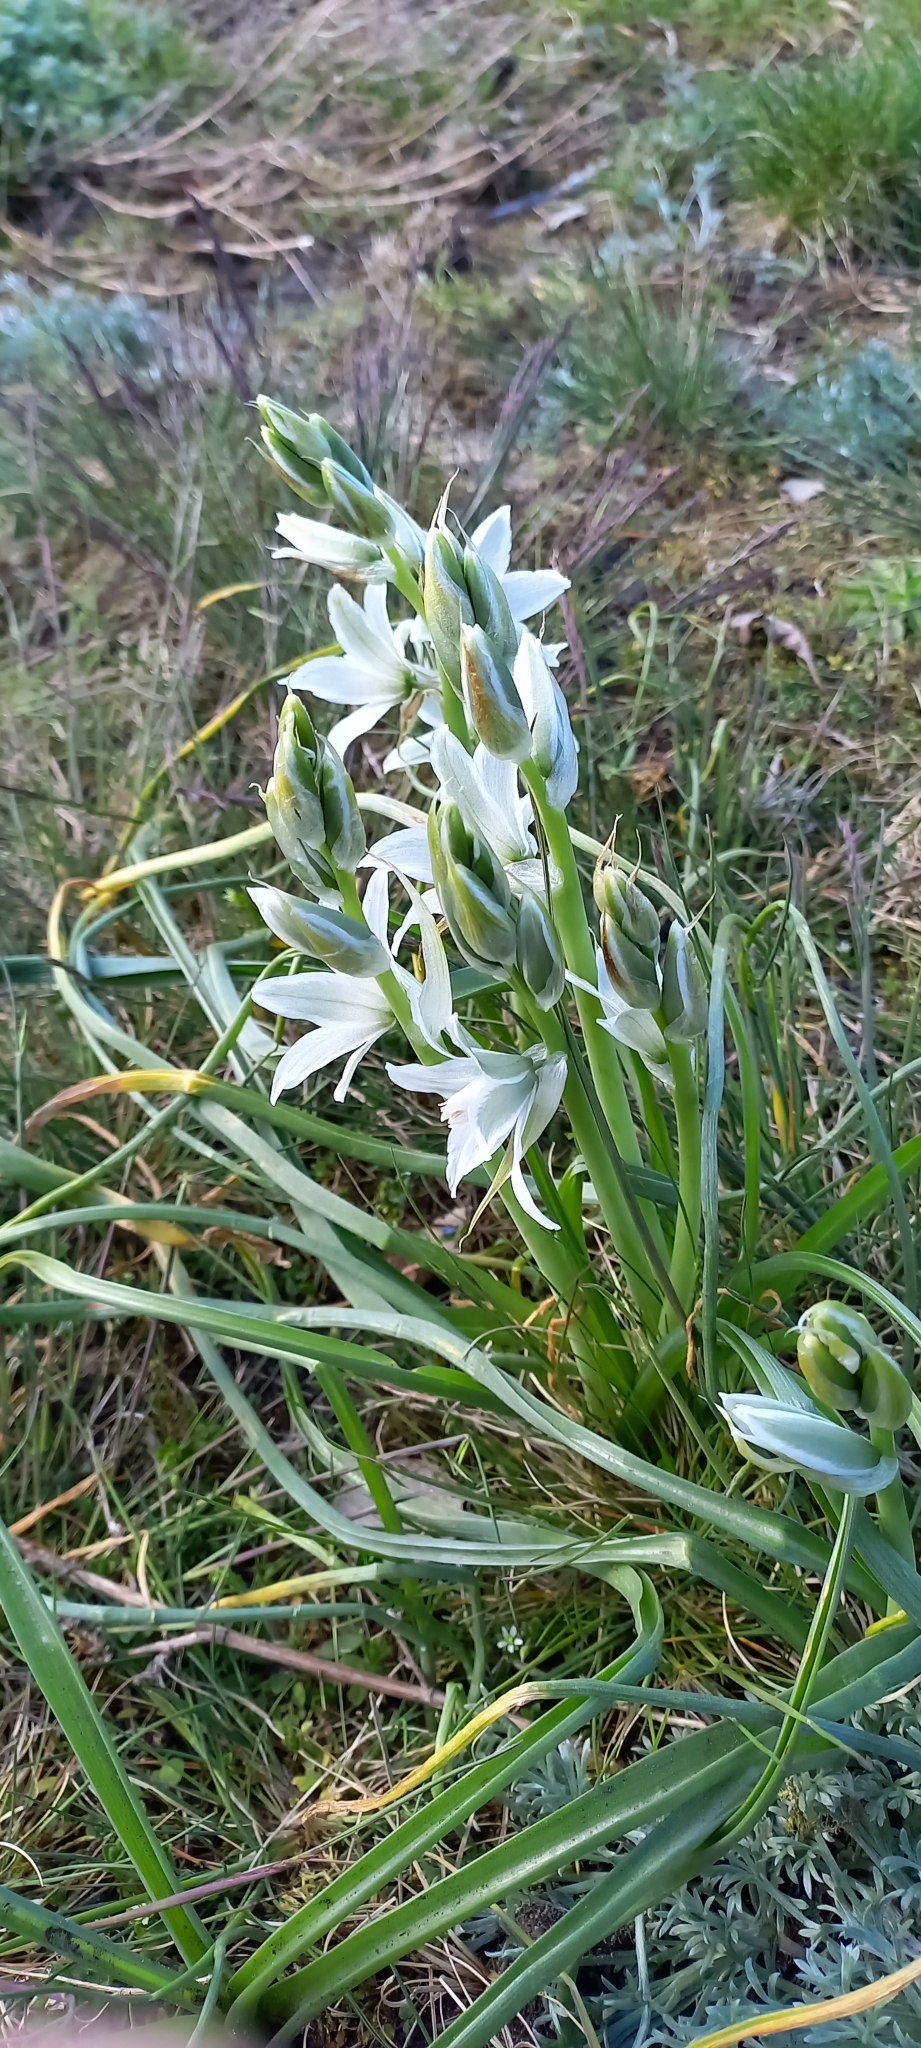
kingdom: Plantae
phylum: Tracheophyta
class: Liliopsida
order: Asparagales
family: Asparagaceae
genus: Ornithogalum
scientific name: Ornithogalum nutans
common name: Drooping star-of-bethlehem
